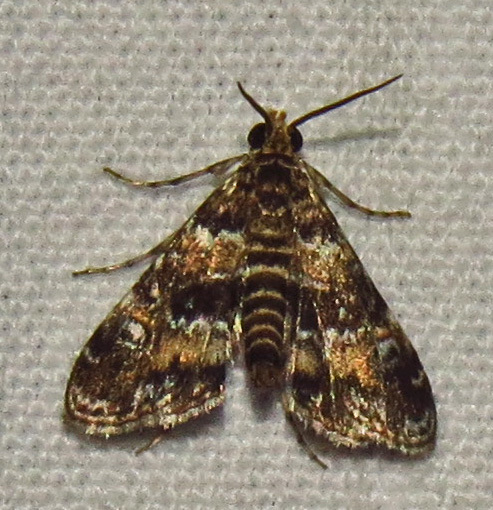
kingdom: Animalia
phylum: Arthropoda
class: Insecta
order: Lepidoptera
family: Crambidae
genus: Elophila
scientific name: Elophila obliteralis
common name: Waterlily leafcutter moth
